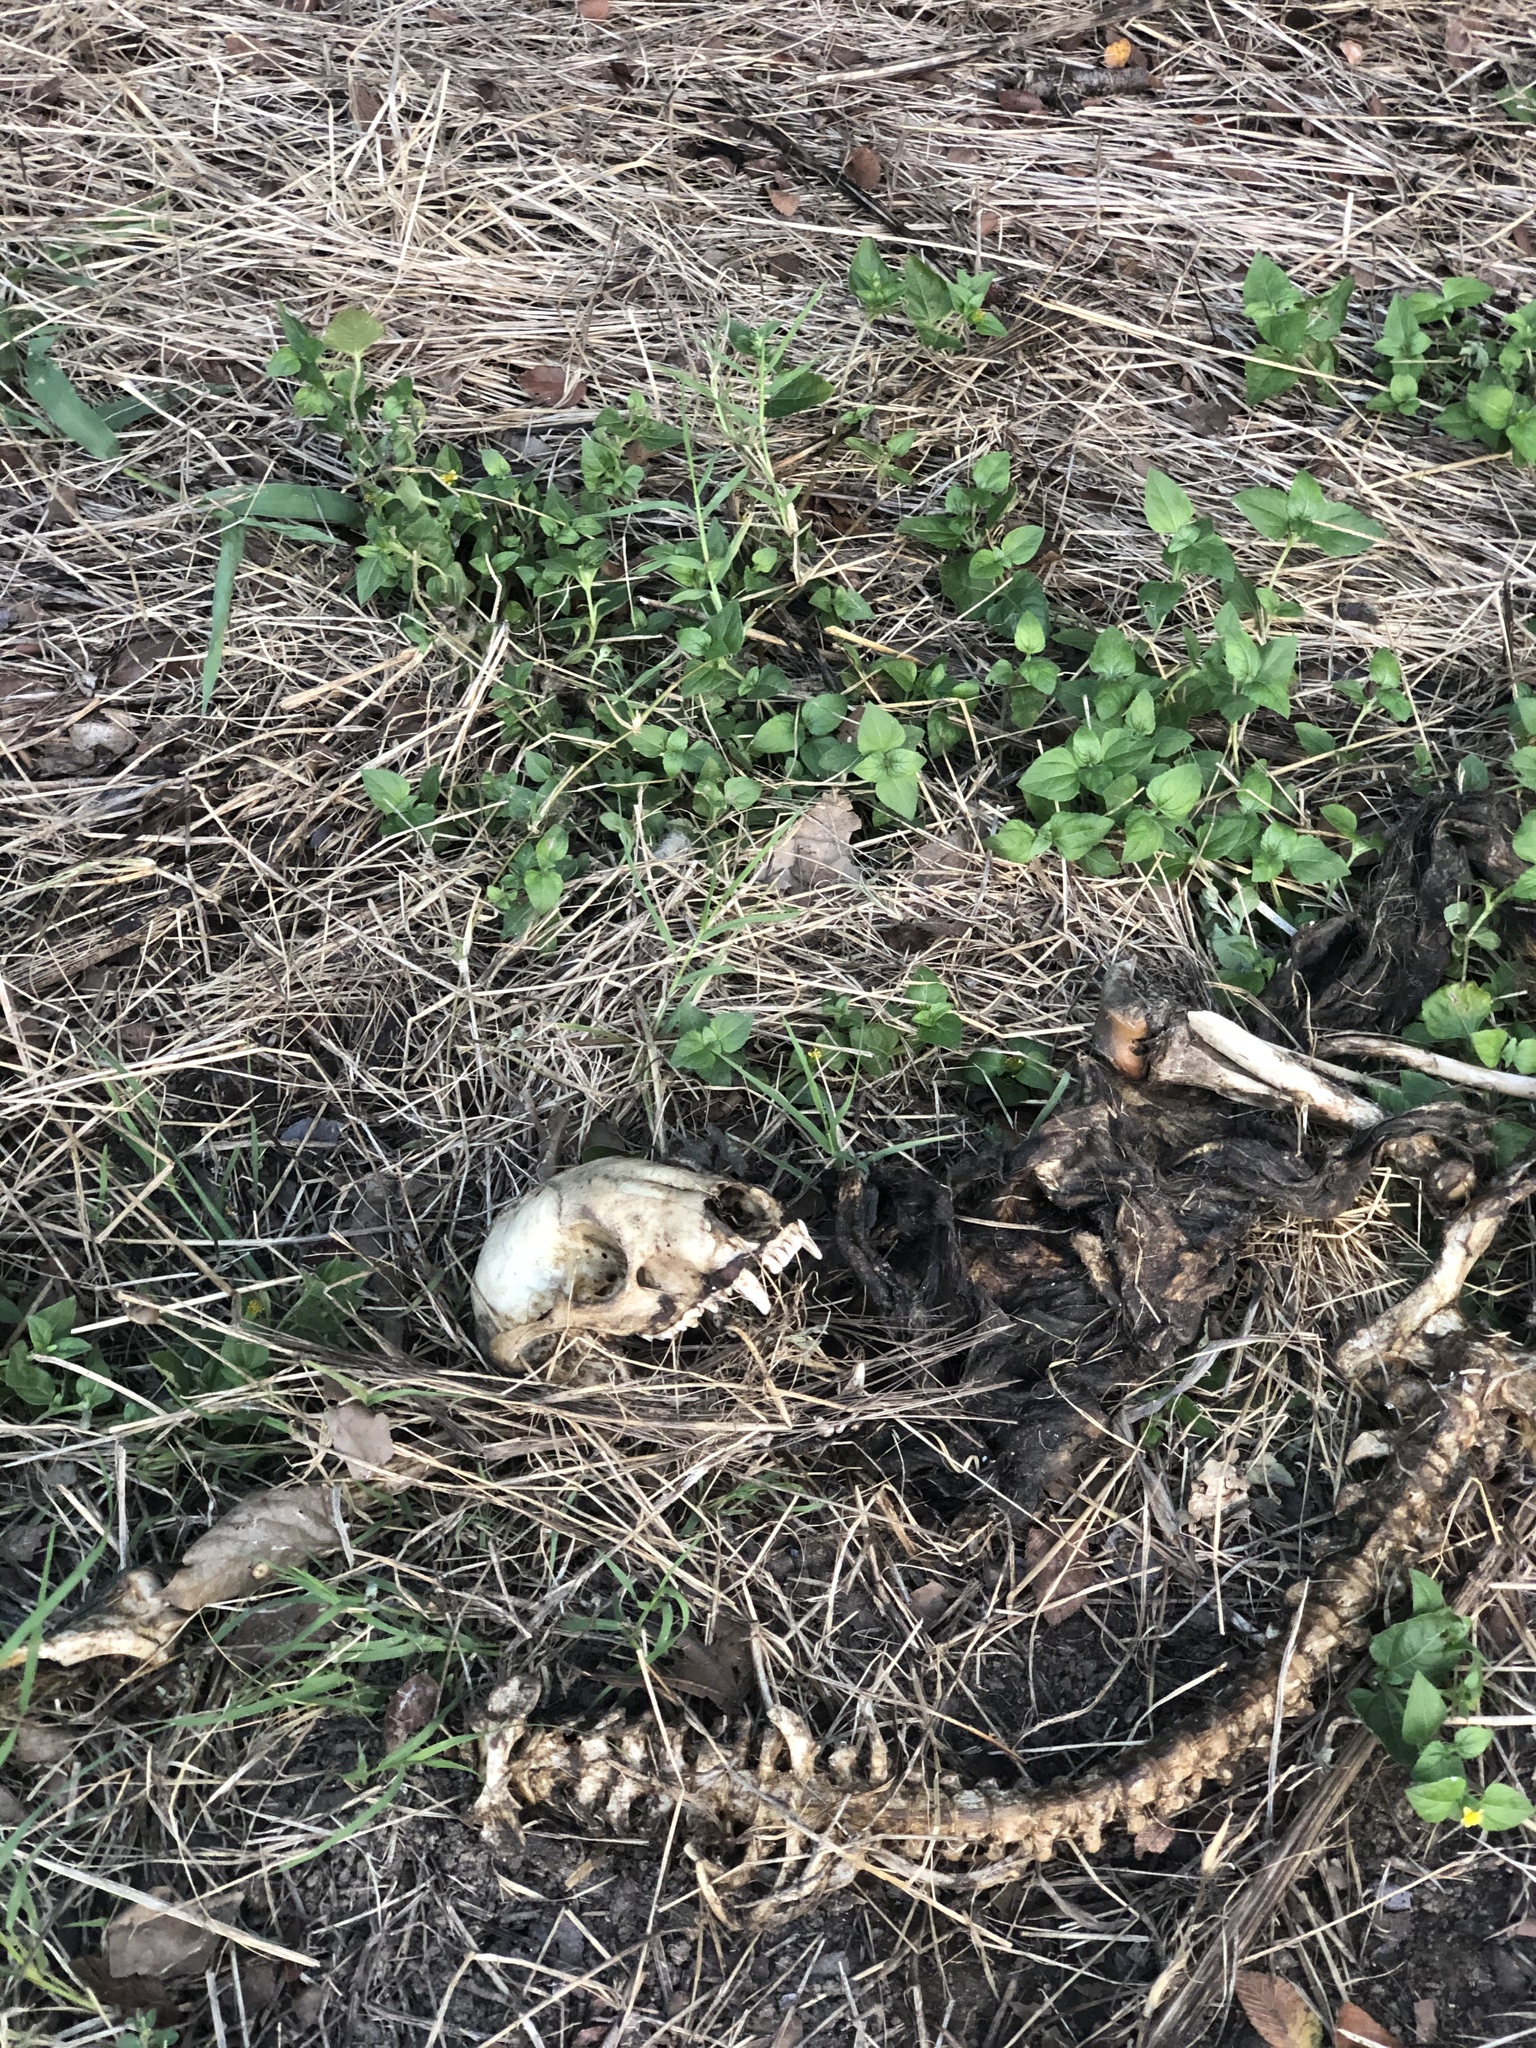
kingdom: Animalia
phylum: Chordata
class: Mammalia
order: Carnivora
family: Procyonidae
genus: Procyon
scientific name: Procyon lotor
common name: Raccoon
